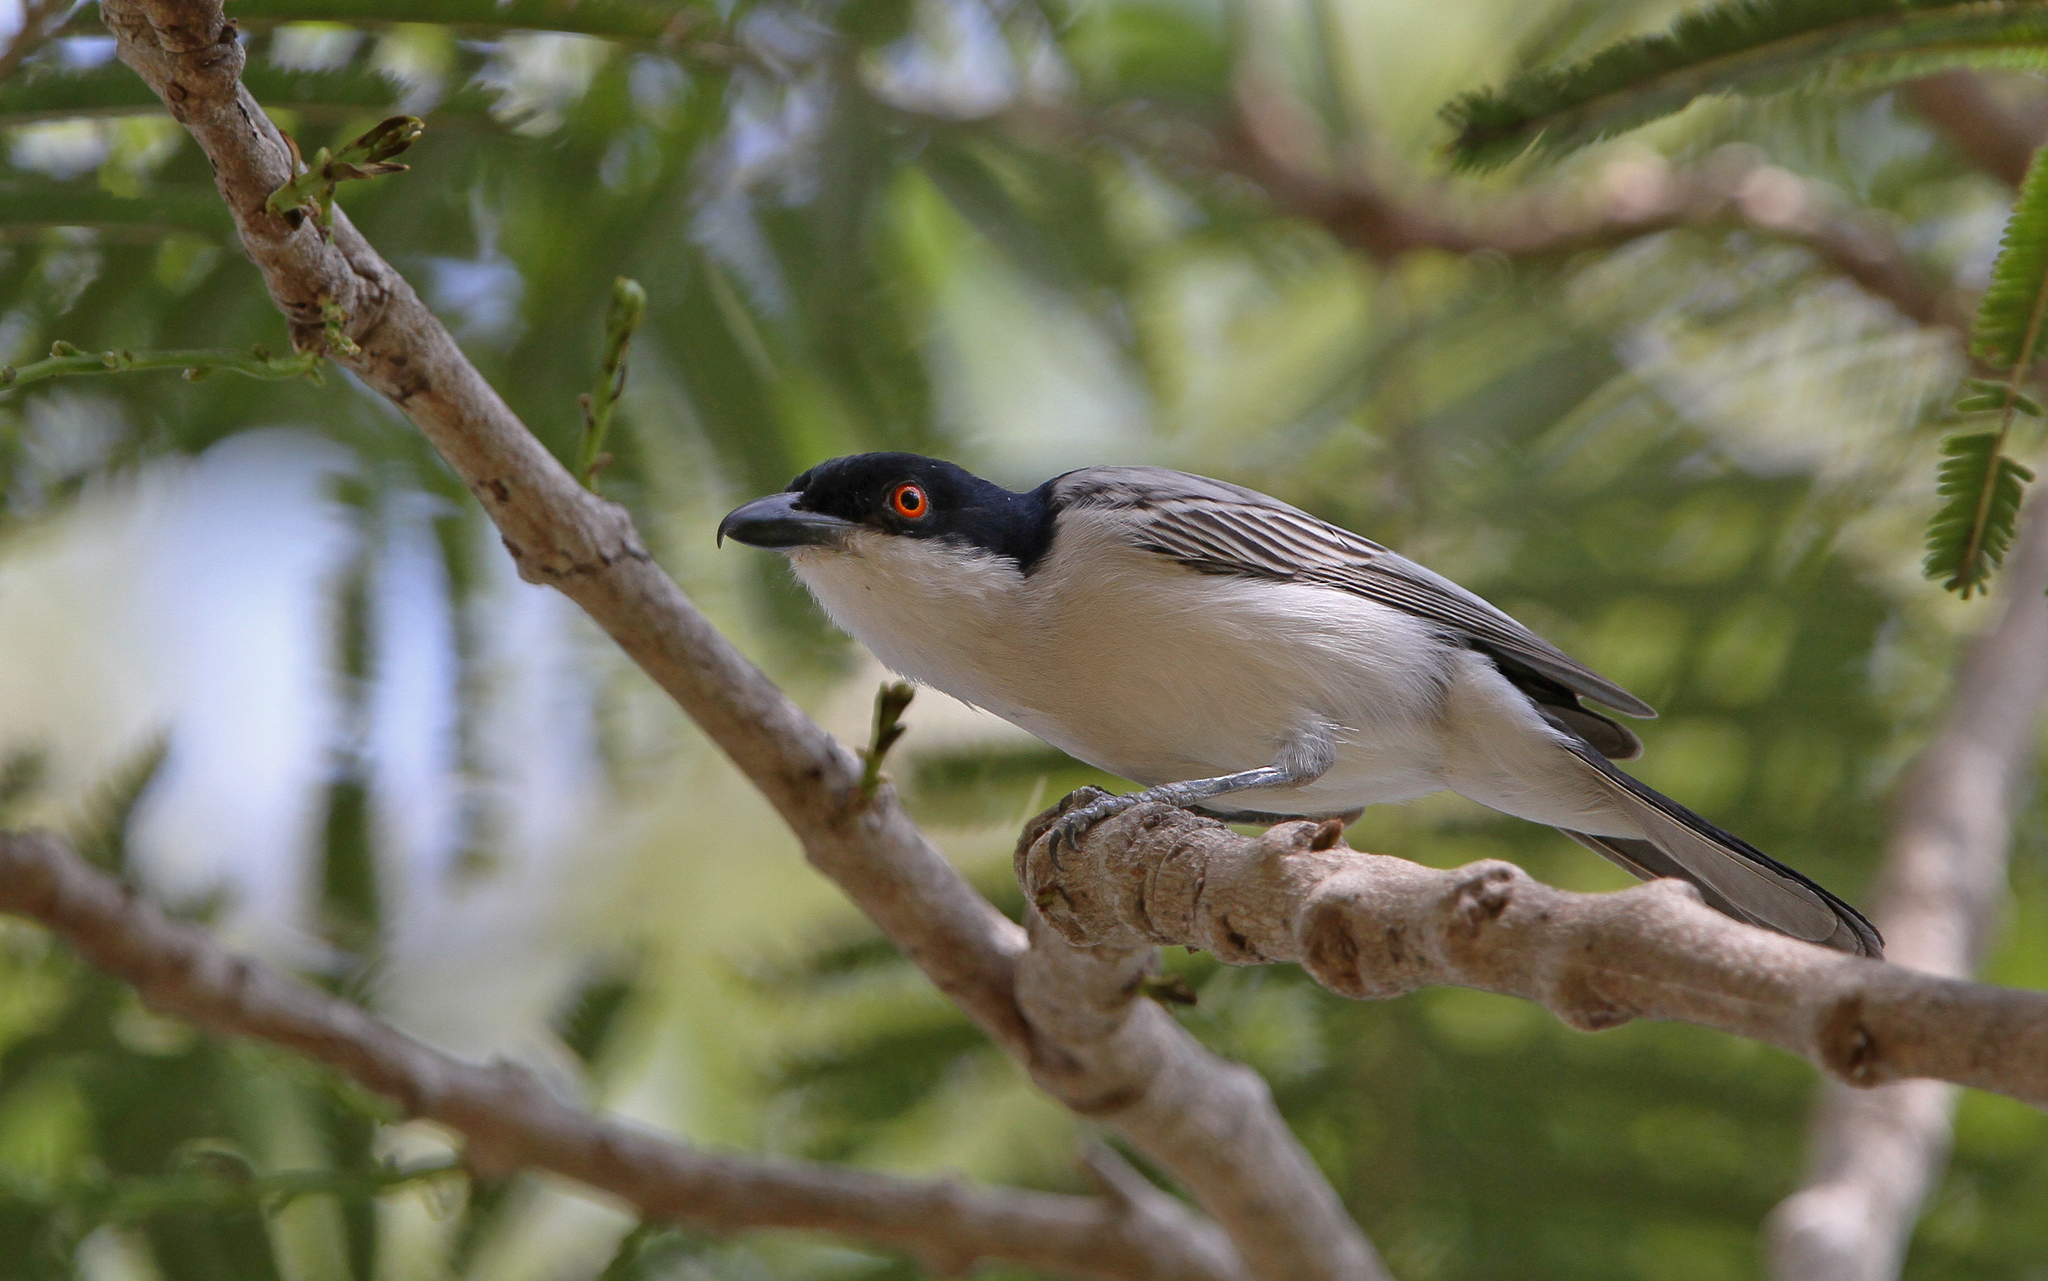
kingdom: Animalia
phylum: Chordata
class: Aves
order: Passeriformes
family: Malaconotidae
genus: Dryoscopus
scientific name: Dryoscopus gambensis
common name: Northern puffback
